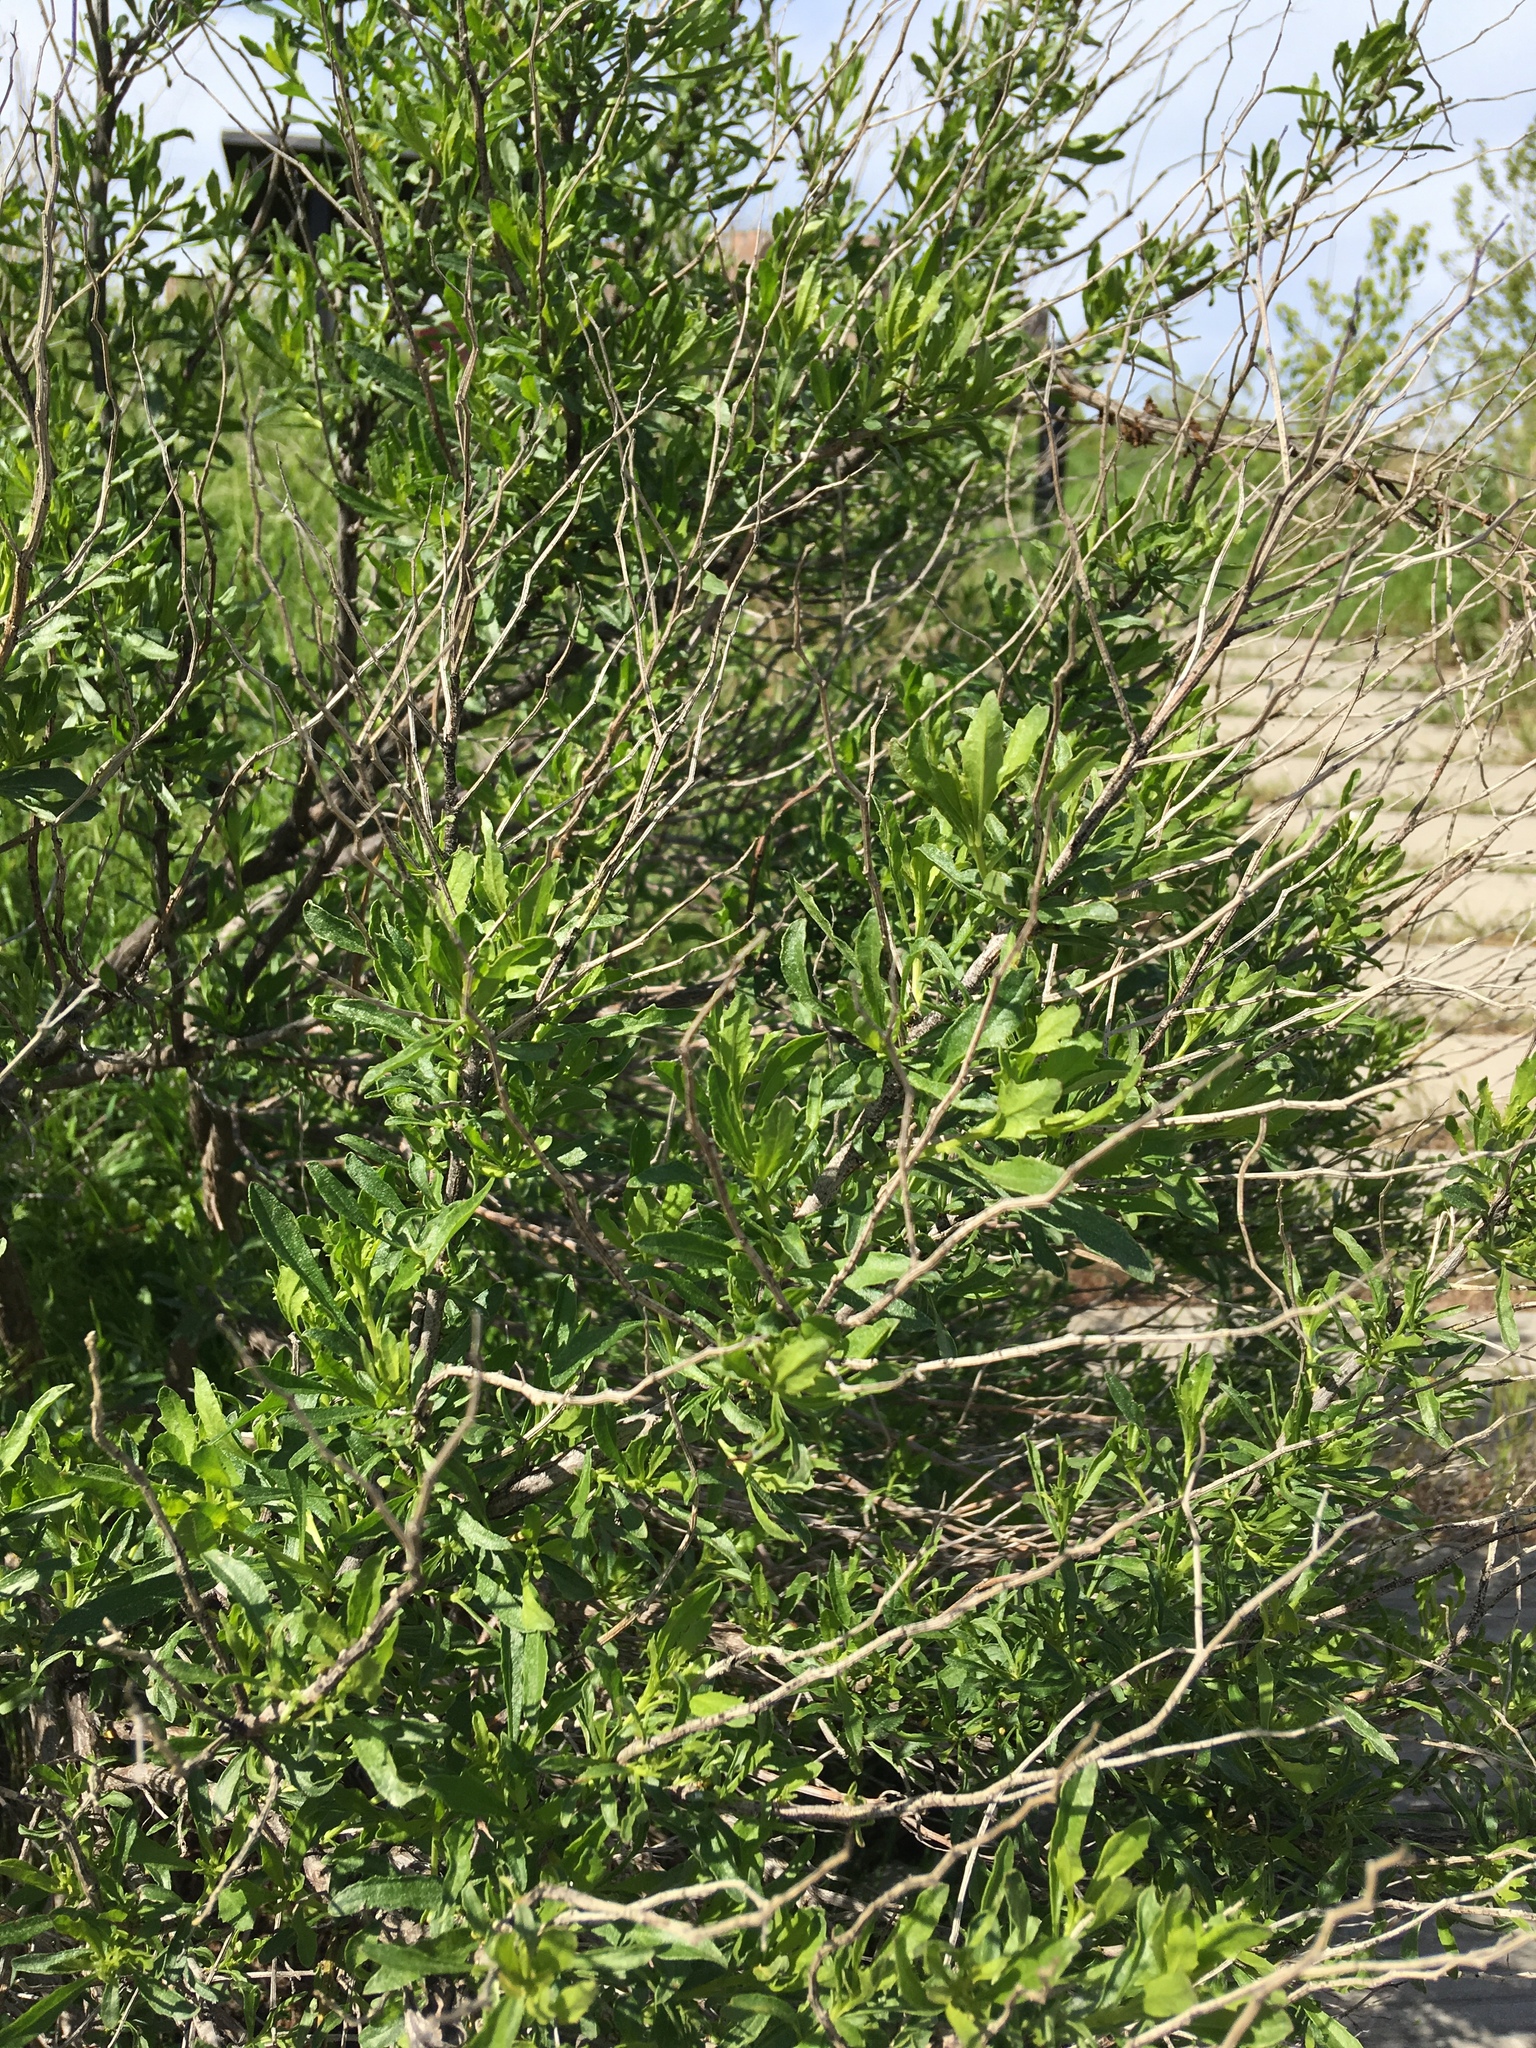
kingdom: Plantae
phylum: Tracheophyta
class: Magnoliopsida
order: Asterales
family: Asteraceae
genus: Baccharis
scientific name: Baccharis halimifolia
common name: Eastern baccharis
